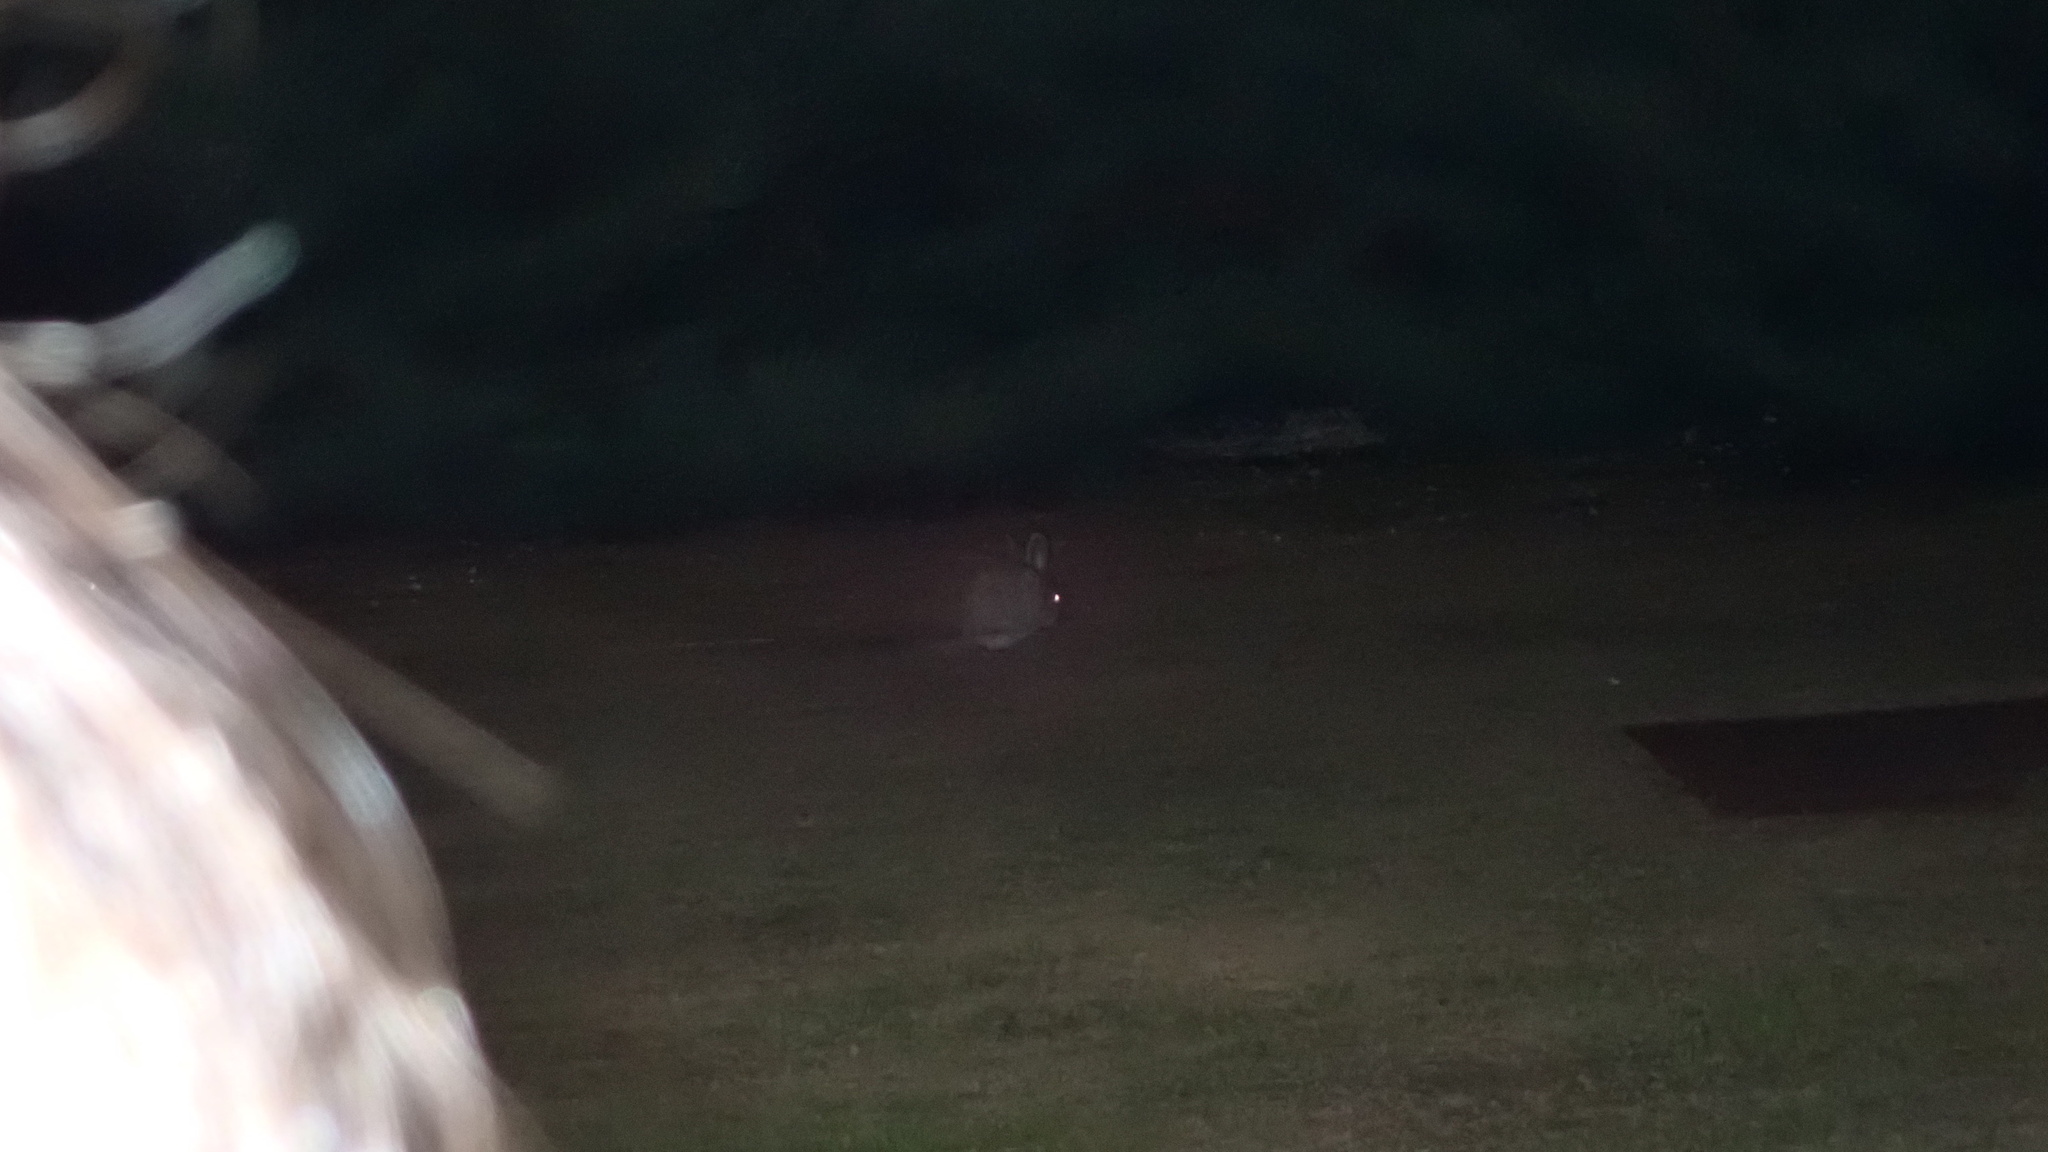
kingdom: Animalia
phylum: Chordata
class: Mammalia
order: Lagomorpha
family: Leporidae
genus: Oryctolagus
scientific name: Oryctolagus cuniculus
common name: European rabbit
